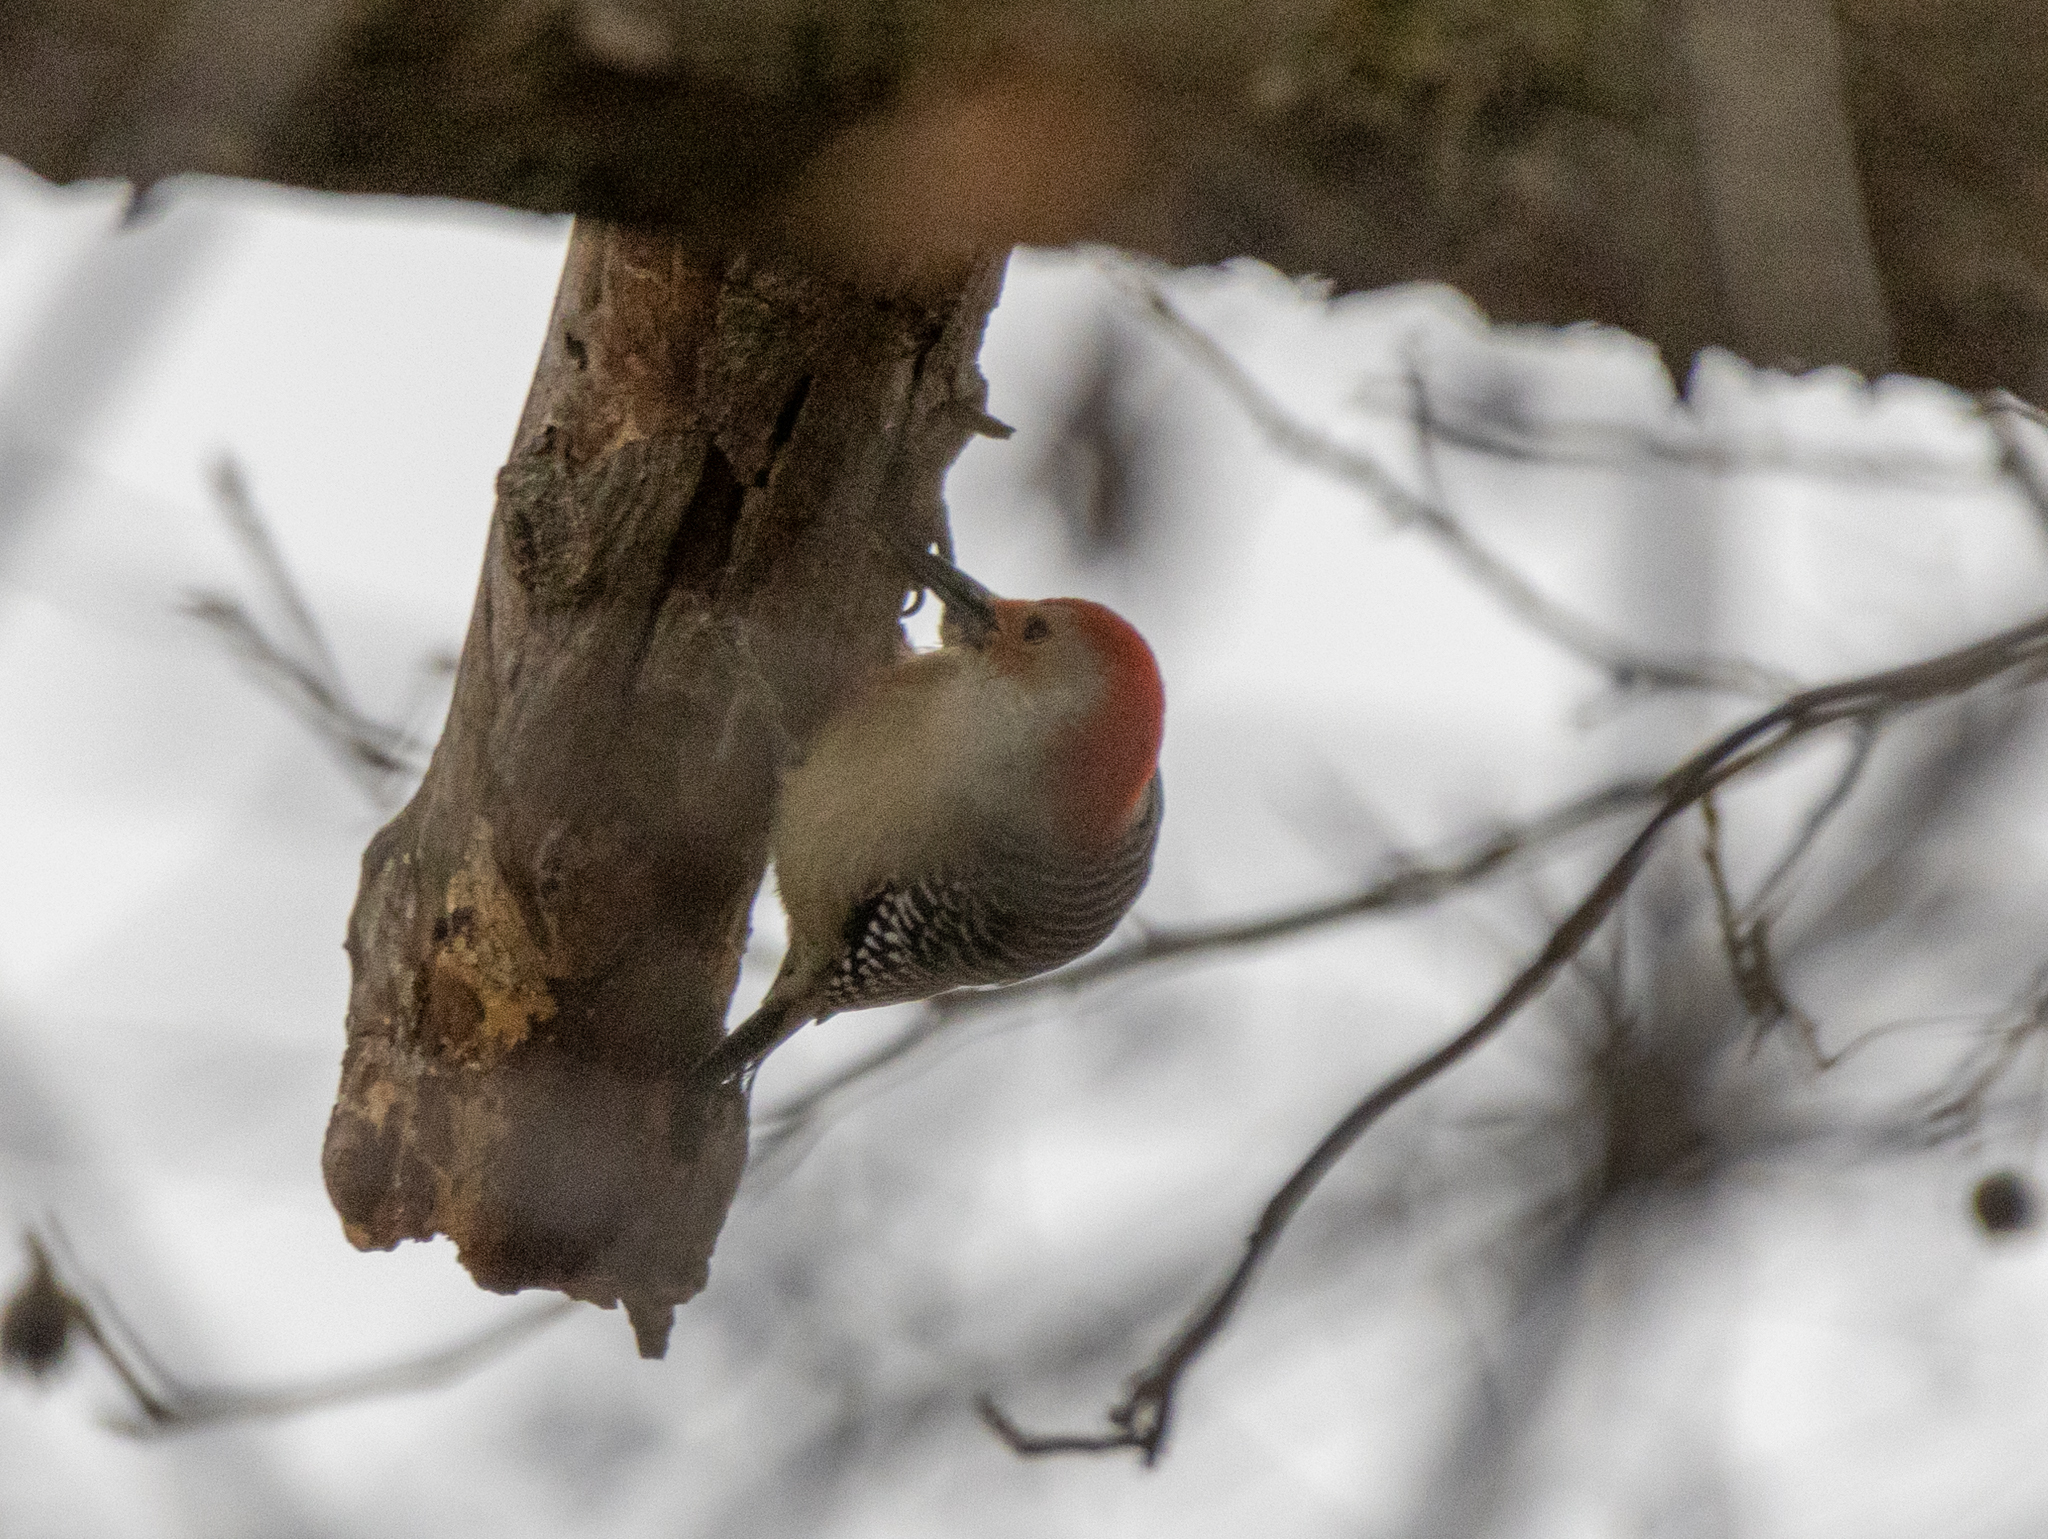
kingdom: Animalia
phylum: Chordata
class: Aves
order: Piciformes
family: Picidae
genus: Melanerpes
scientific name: Melanerpes carolinus
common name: Red-bellied woodpecker
